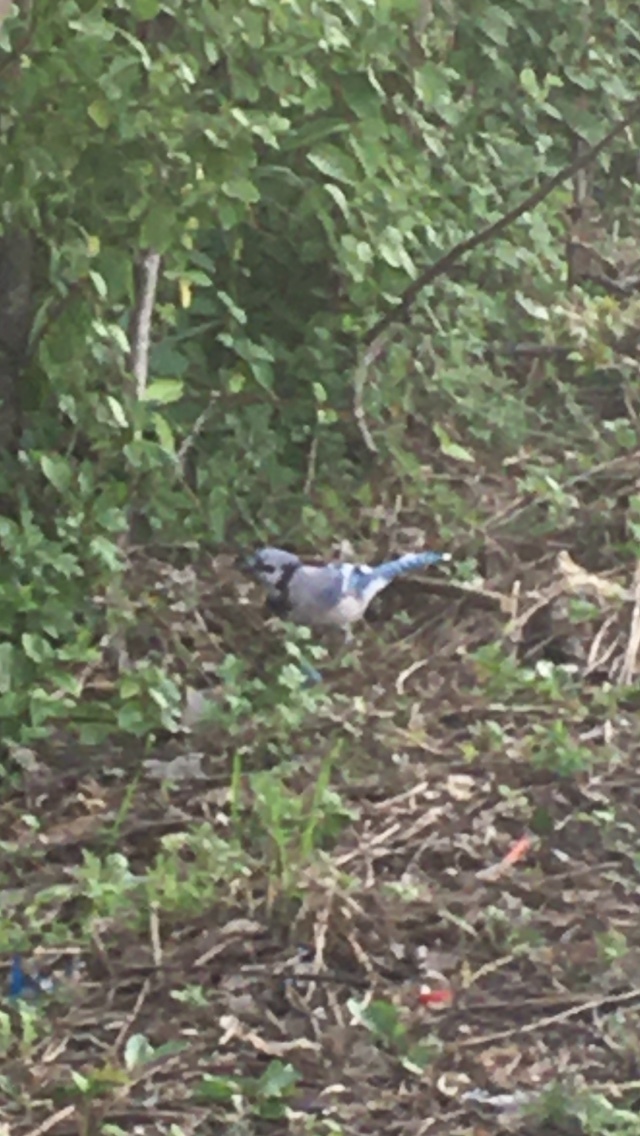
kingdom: Animalia
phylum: Chordata
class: Aves
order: Passeriformes
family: Corvidae
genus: Cyanocitta
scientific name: Cyanocitta cristata
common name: Blue jay
